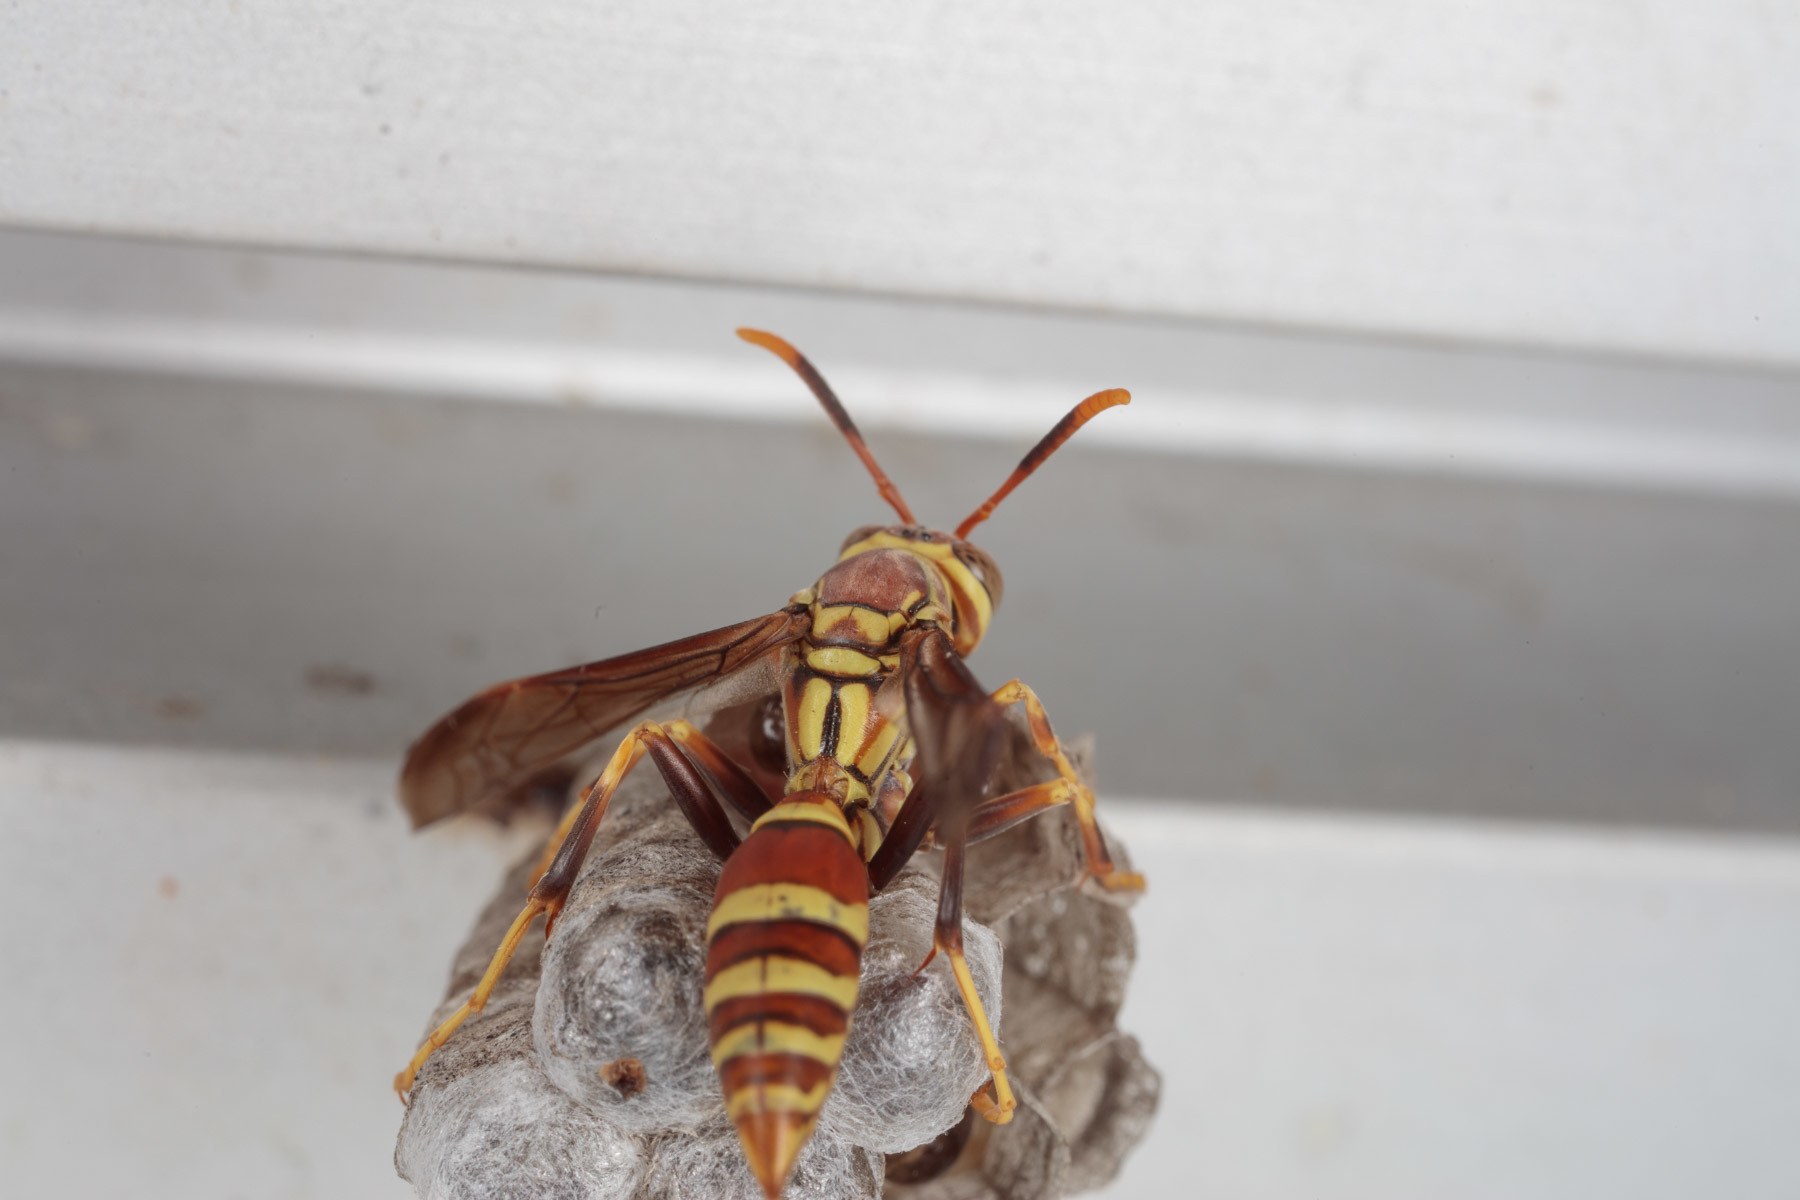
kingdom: Animalia
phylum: Arthropoda
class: Insecta
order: Hymenoptera
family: Eumenidae
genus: Polistes
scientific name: Polistes exclamans
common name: Paper wasp
